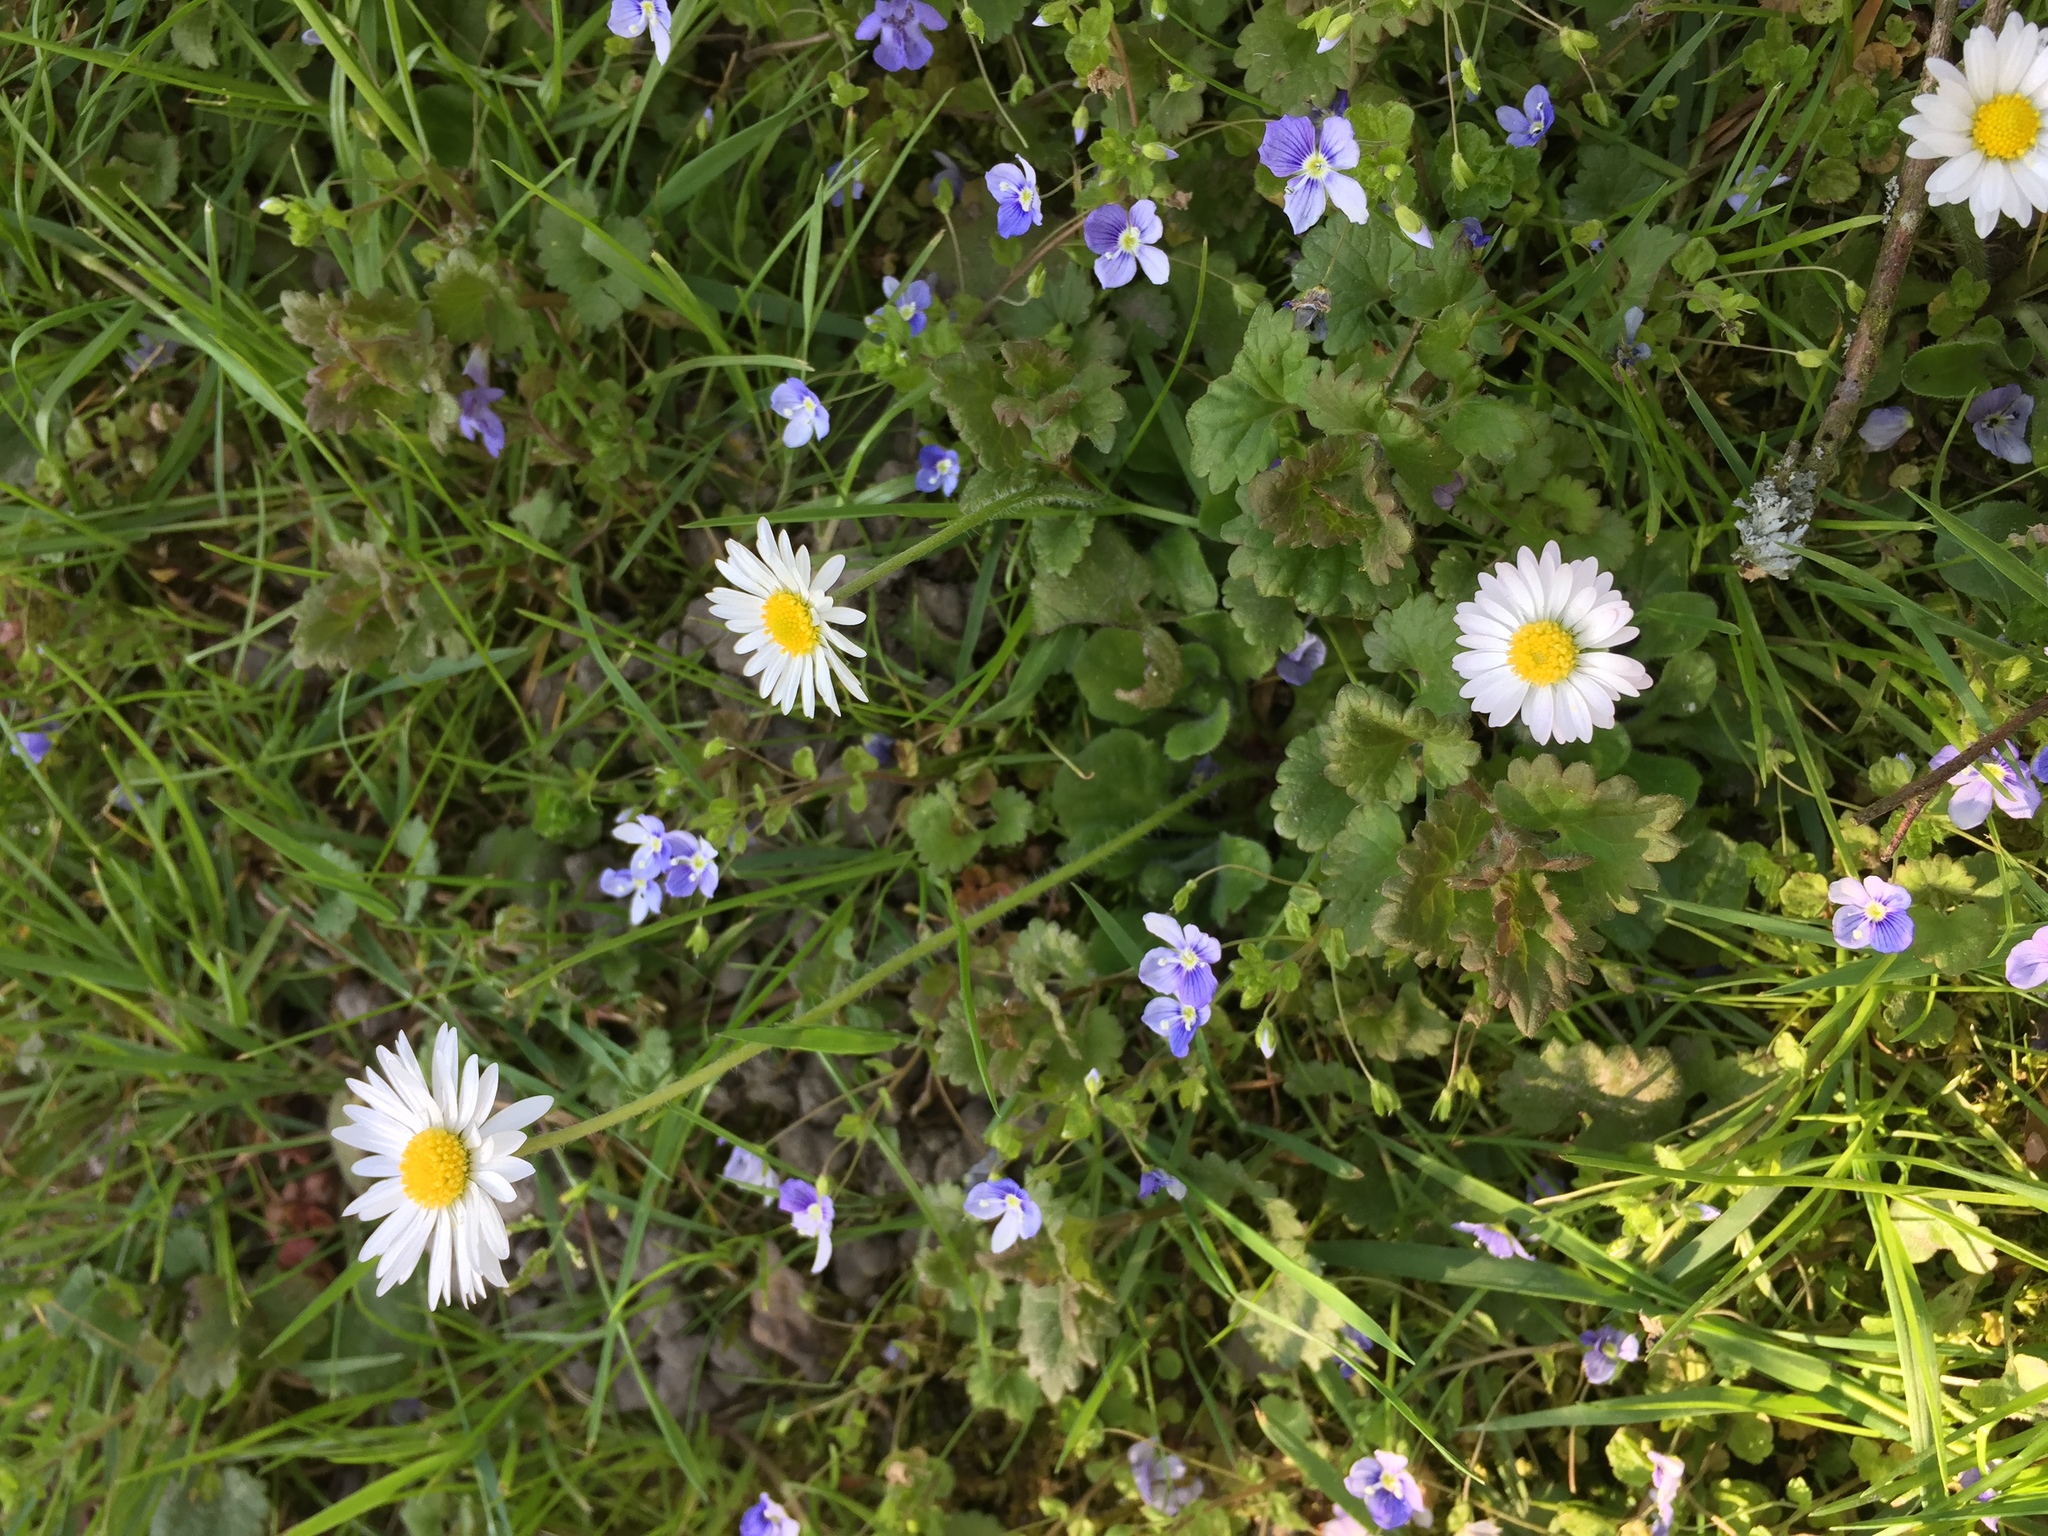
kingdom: Plantae
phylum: Tracheophyta
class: Magnoliopsida
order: Asterales
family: Asteraceae
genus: Bellis
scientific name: Bellis perennis
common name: Lawndaisy
